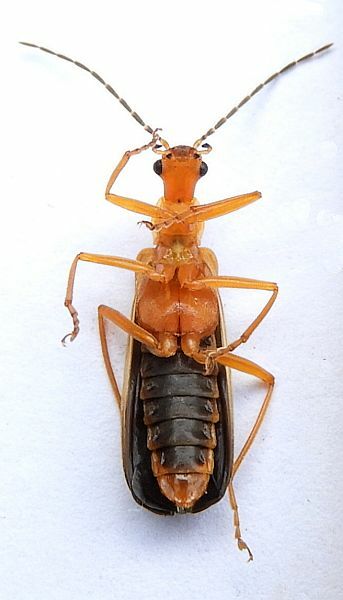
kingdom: Animalia
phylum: Arthropoda
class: Insecta
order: Coleoptera
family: Cantharidae
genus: Podabrus
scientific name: Podabrus protensus
